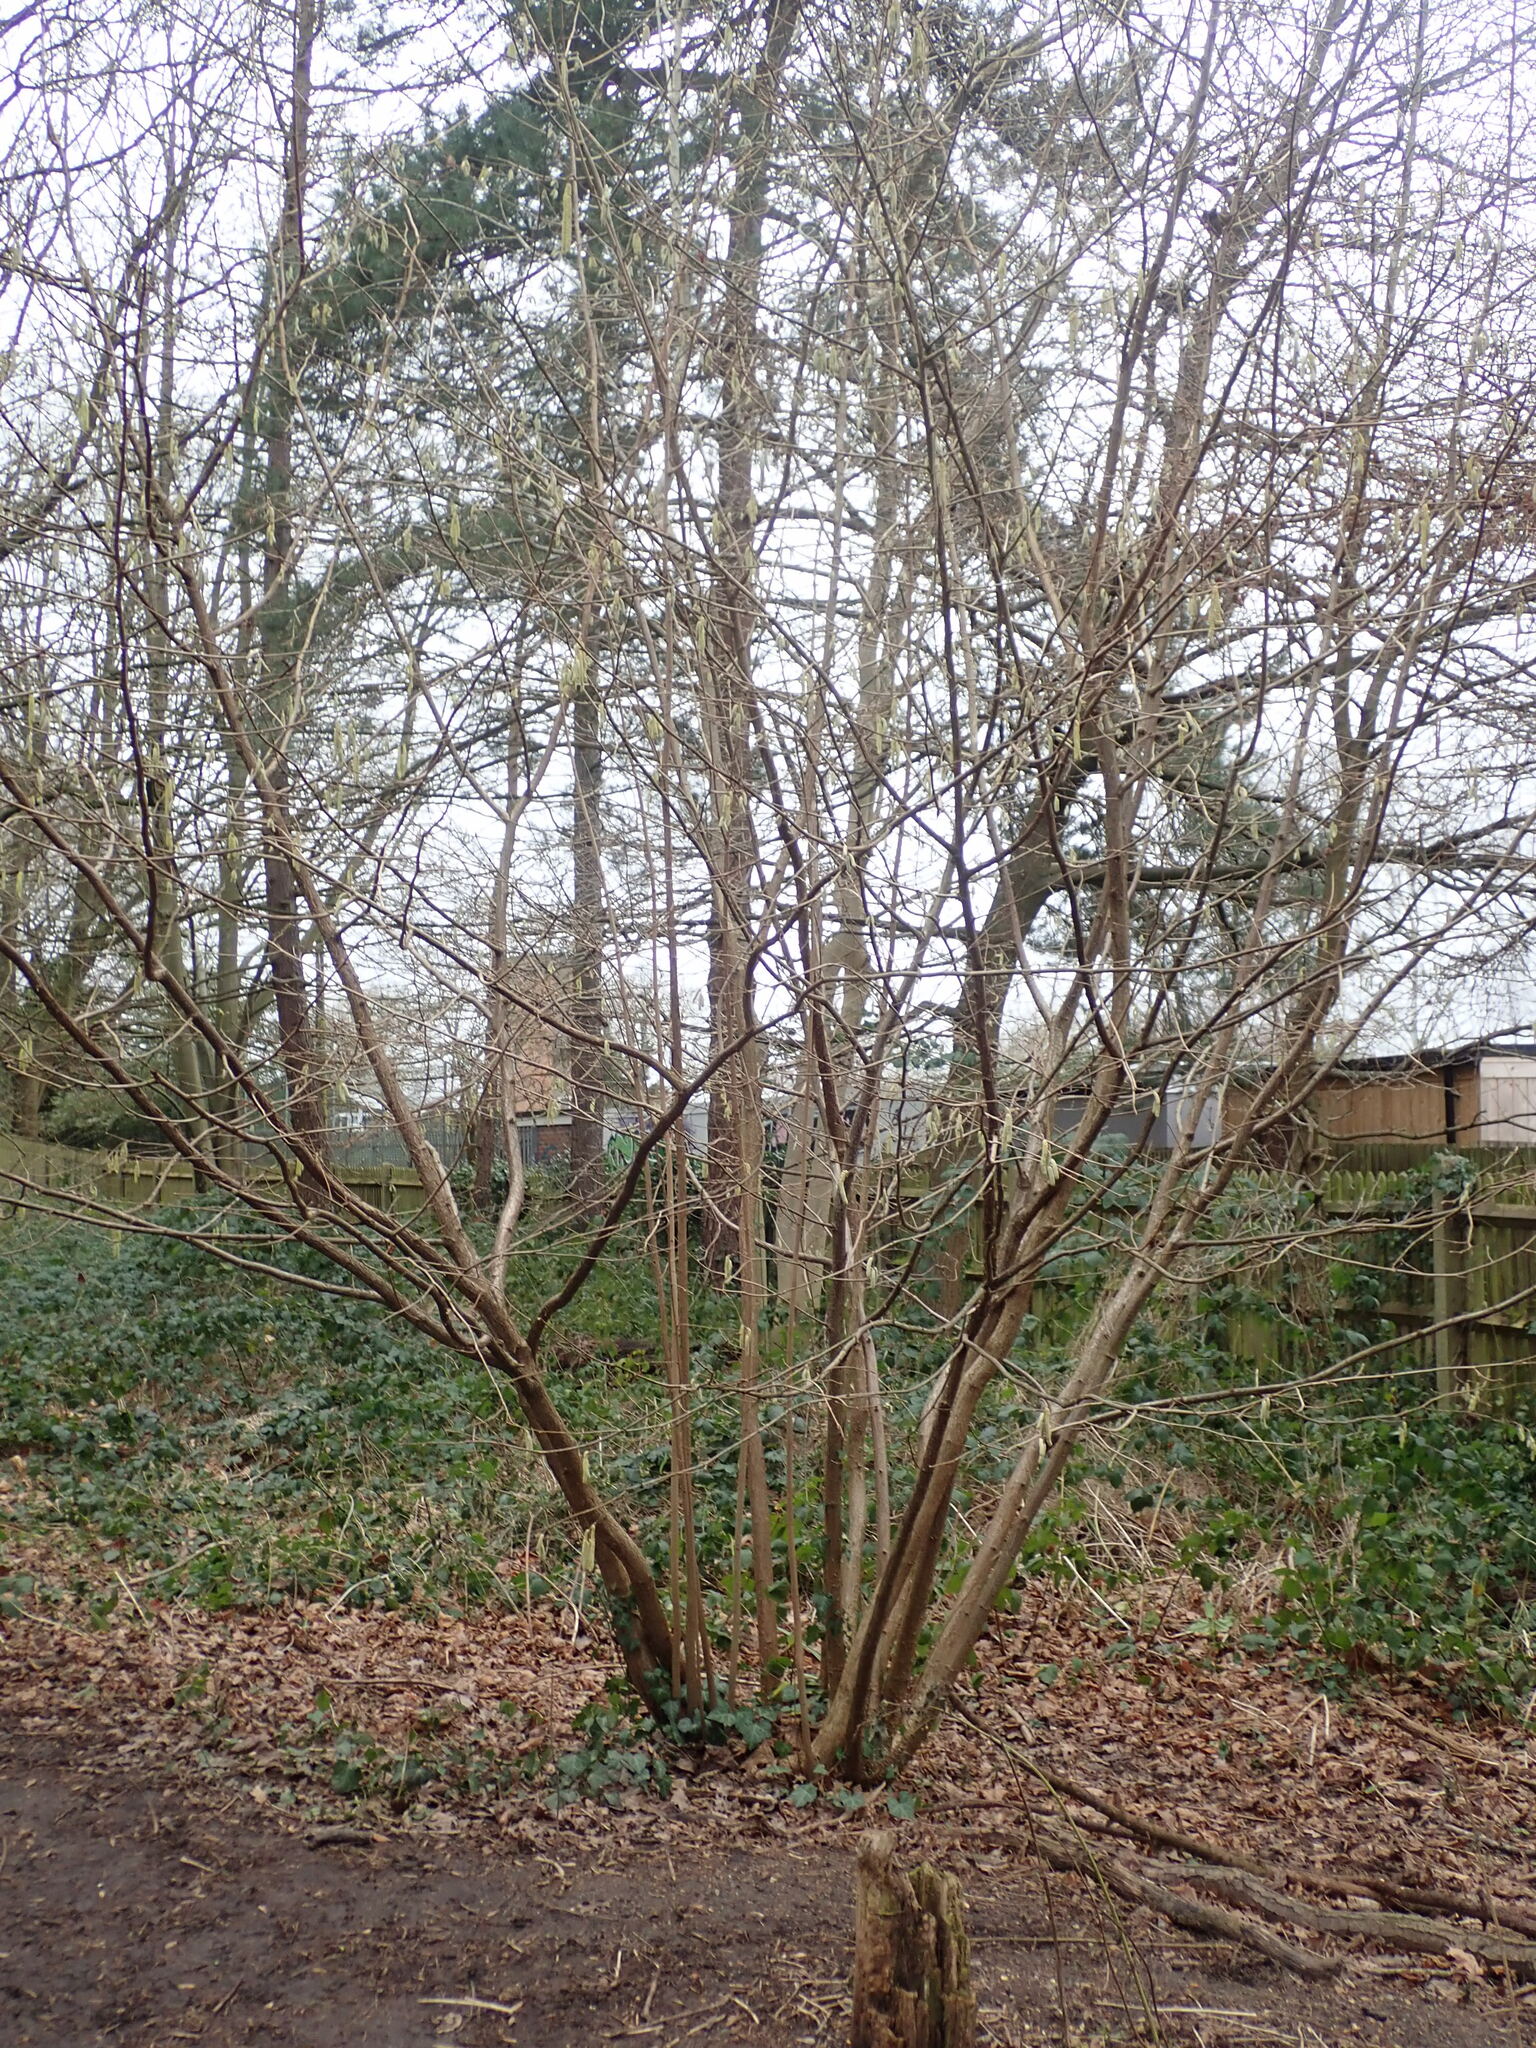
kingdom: Plantae
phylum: Tracheophyta
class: Magnoliopsida
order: Fagales
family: Betulaceae
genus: Corylus
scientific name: Corylus avellana
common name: European hazel
